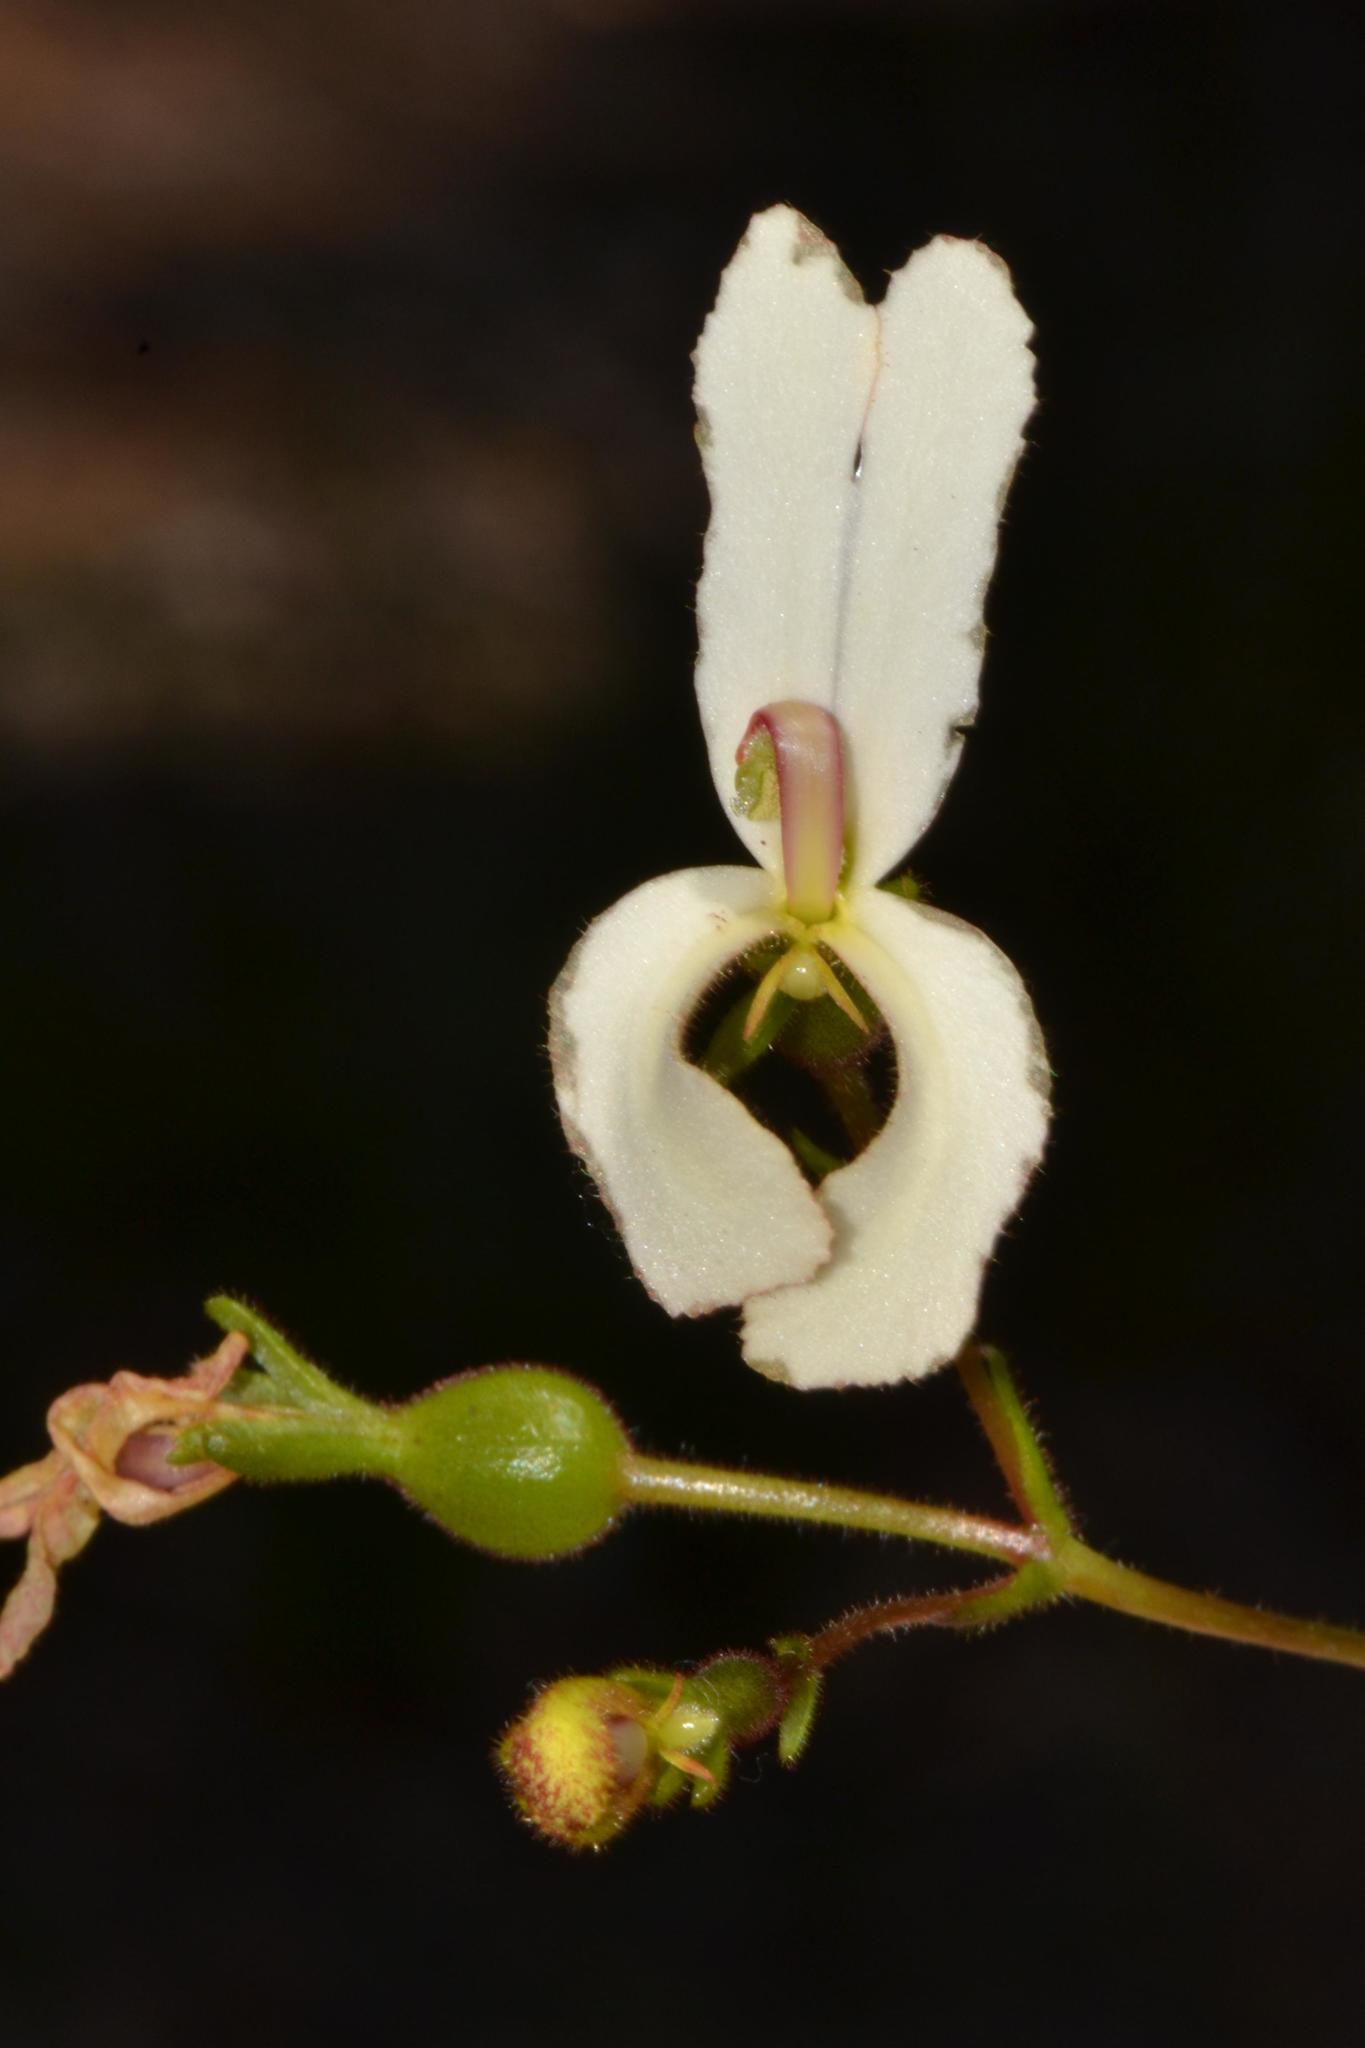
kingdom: Plantae
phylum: Tracheophyta
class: Magnoliopsida
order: Asterales
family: Stylidiaceae
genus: Stylidium
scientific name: Stylidium schoenoides
